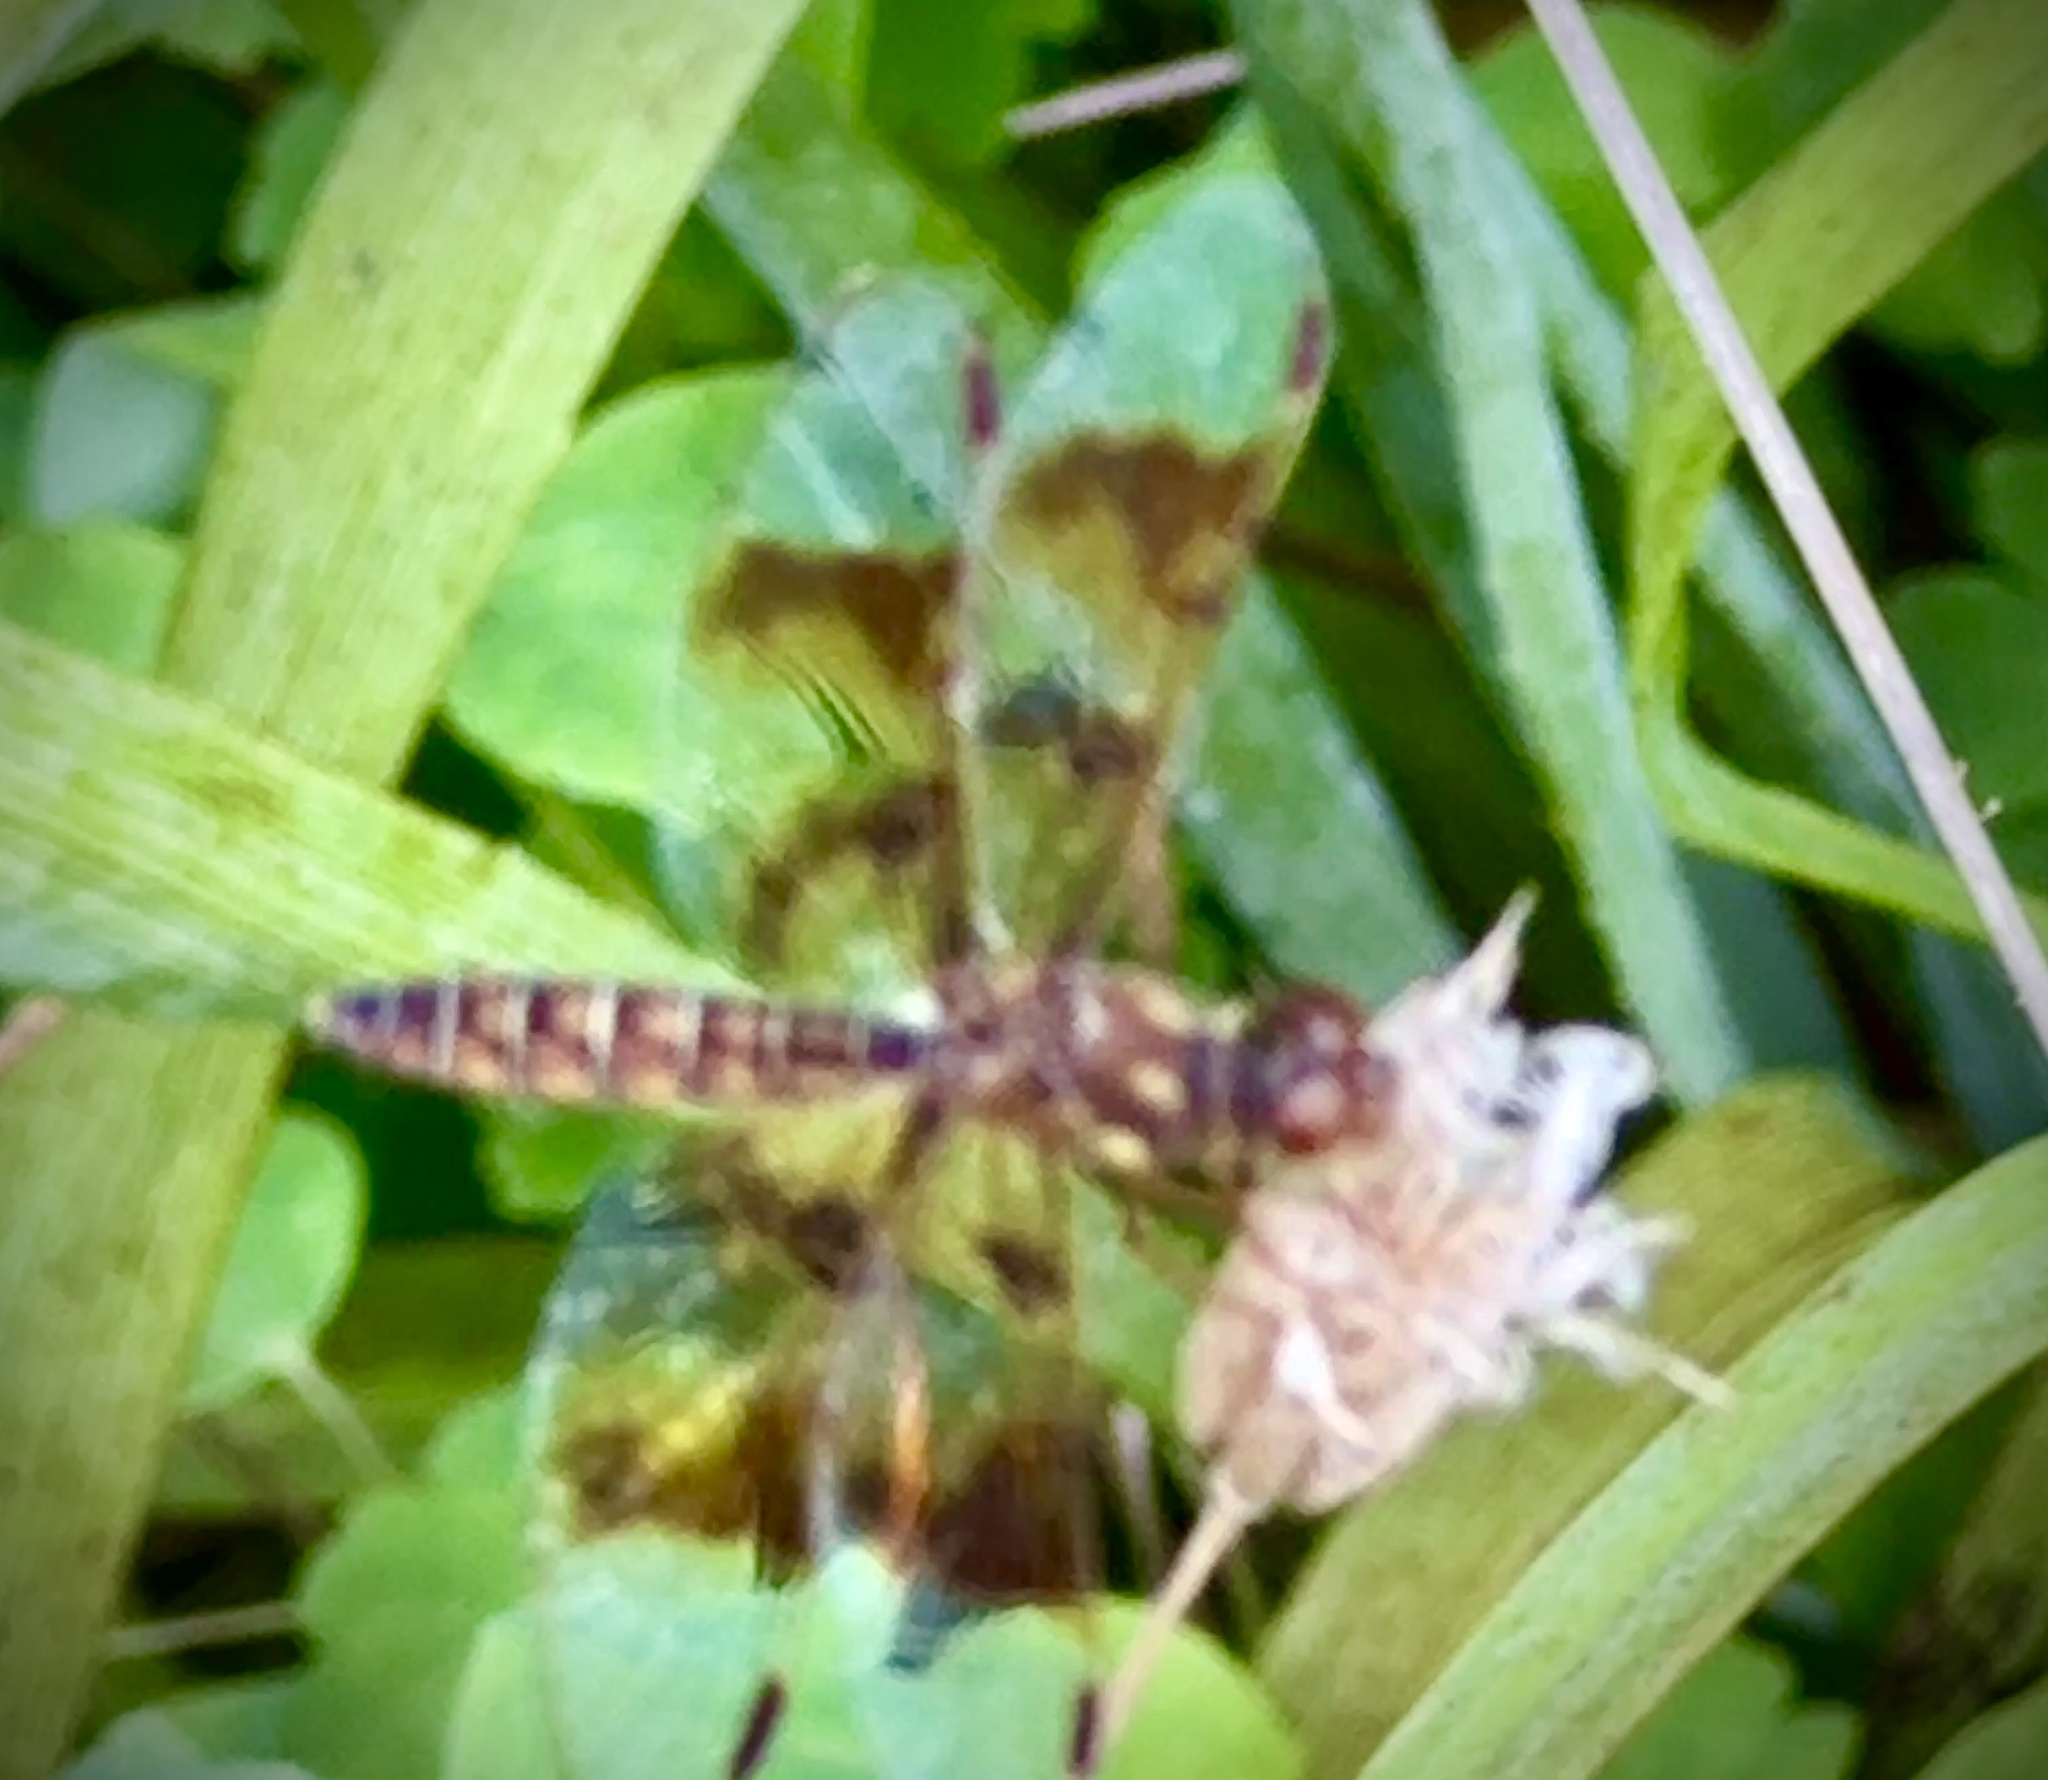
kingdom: Animalia
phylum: Arthropoda
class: Insecta
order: Odonata
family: Libellulidae
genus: Perithemis
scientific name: Perithemis tenera
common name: Eastern amberwing
